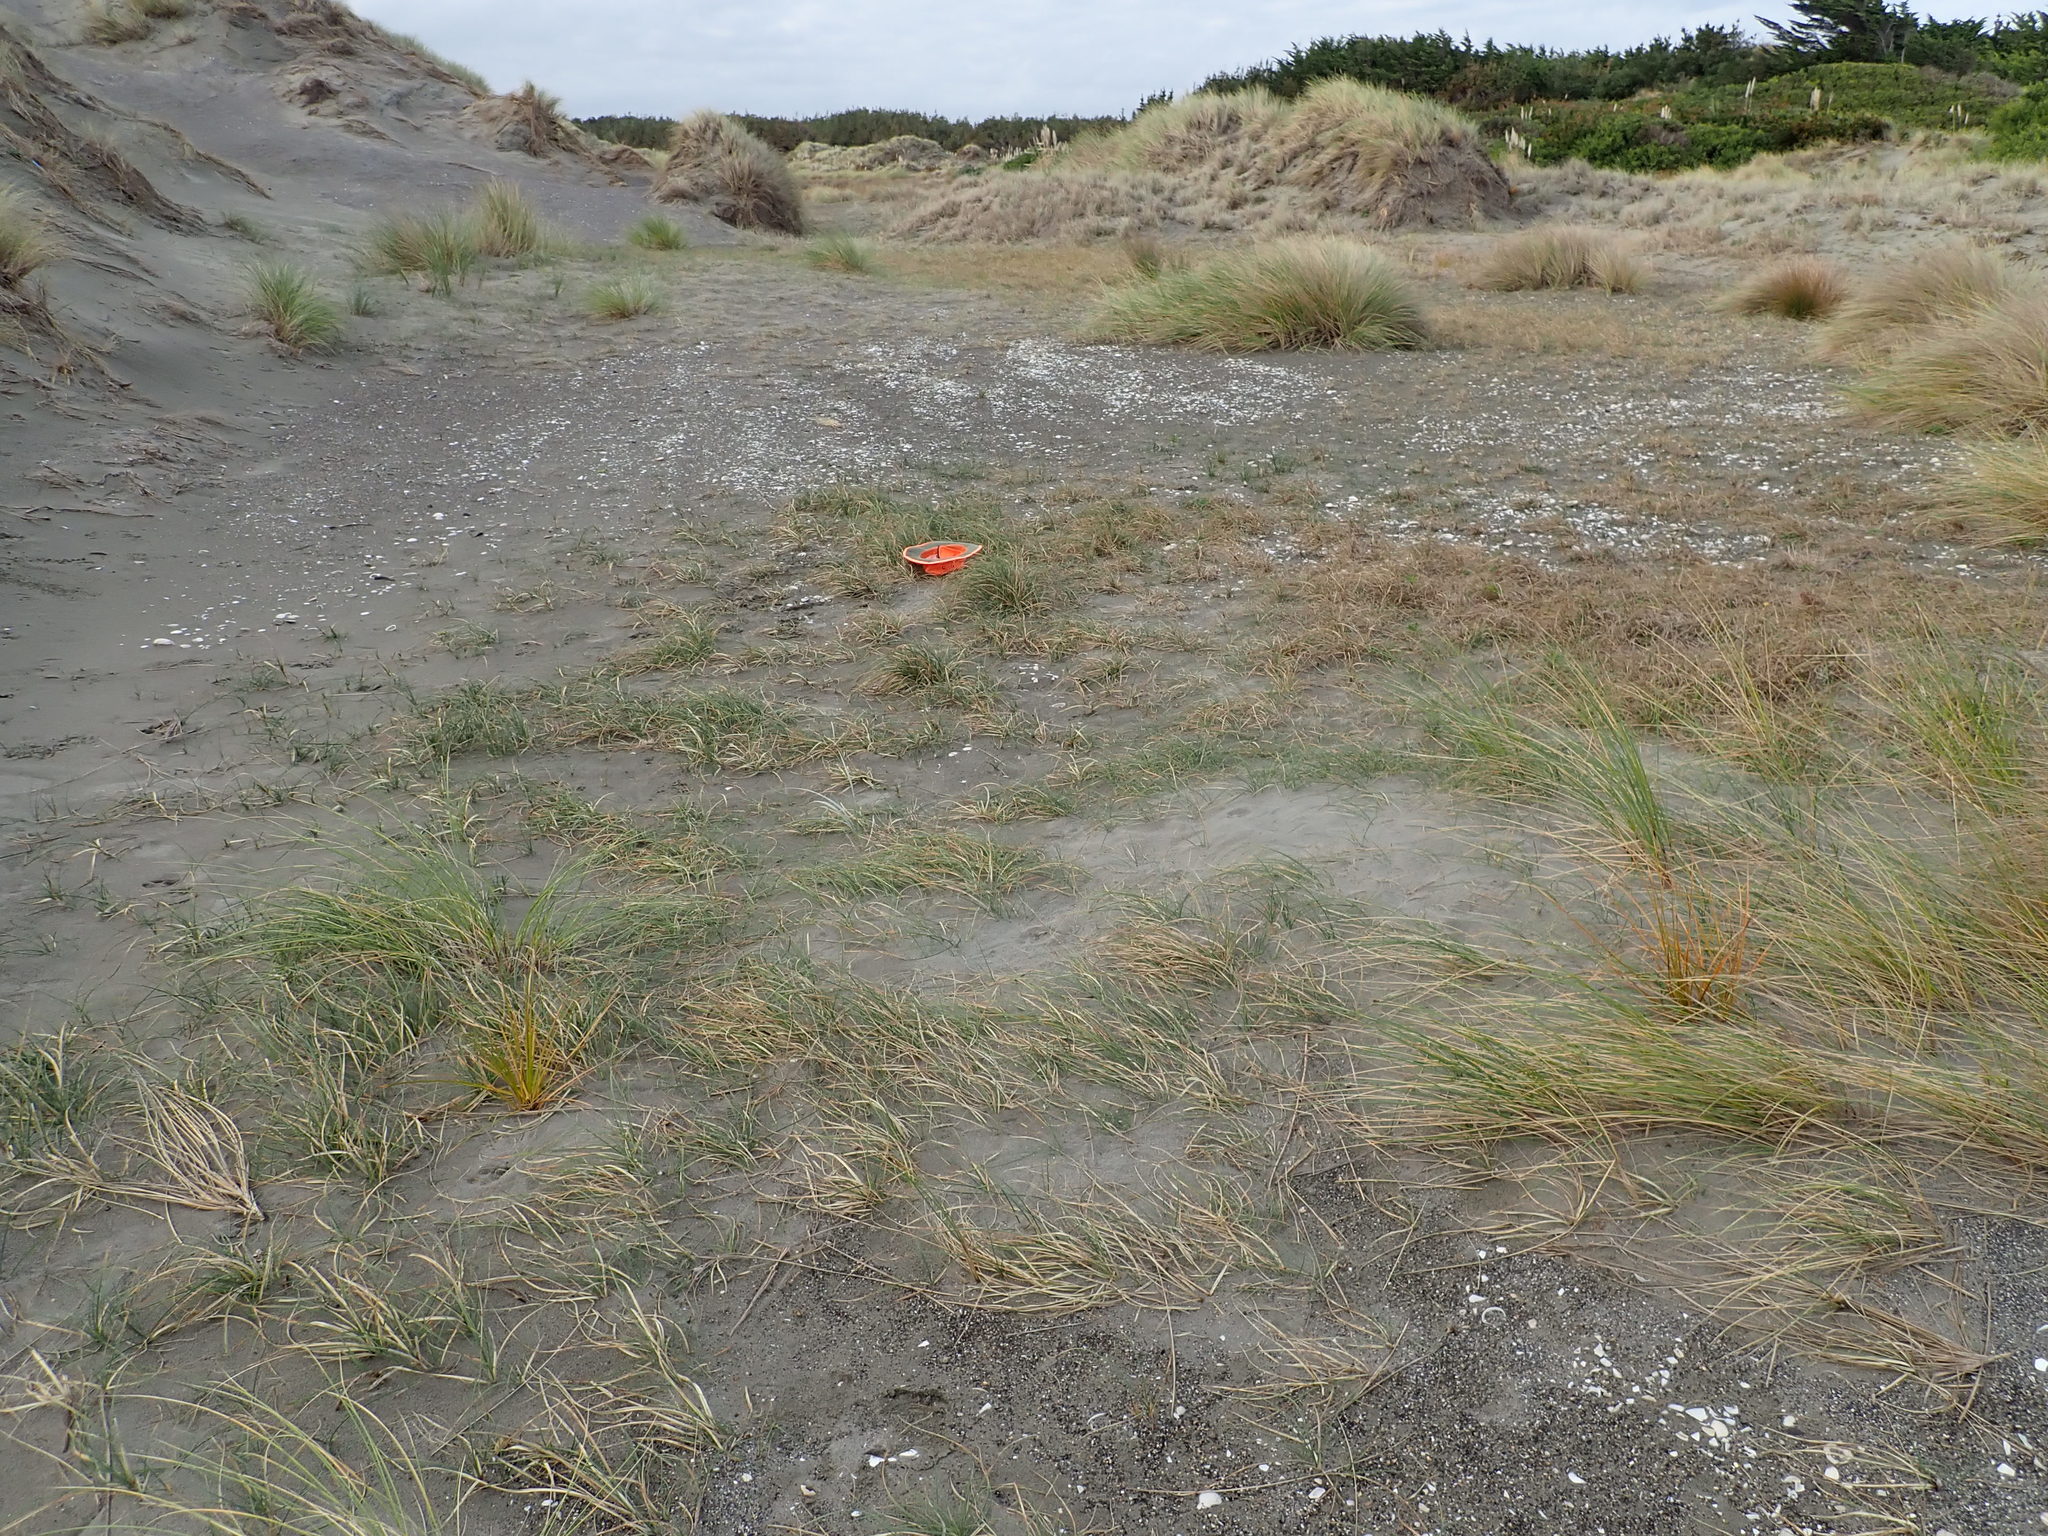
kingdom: Plantae
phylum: Tracheophyta
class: Liliopsida
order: Poales
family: Cyperaceae
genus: Carex
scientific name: Carex pumila
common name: Dwarf sedge
